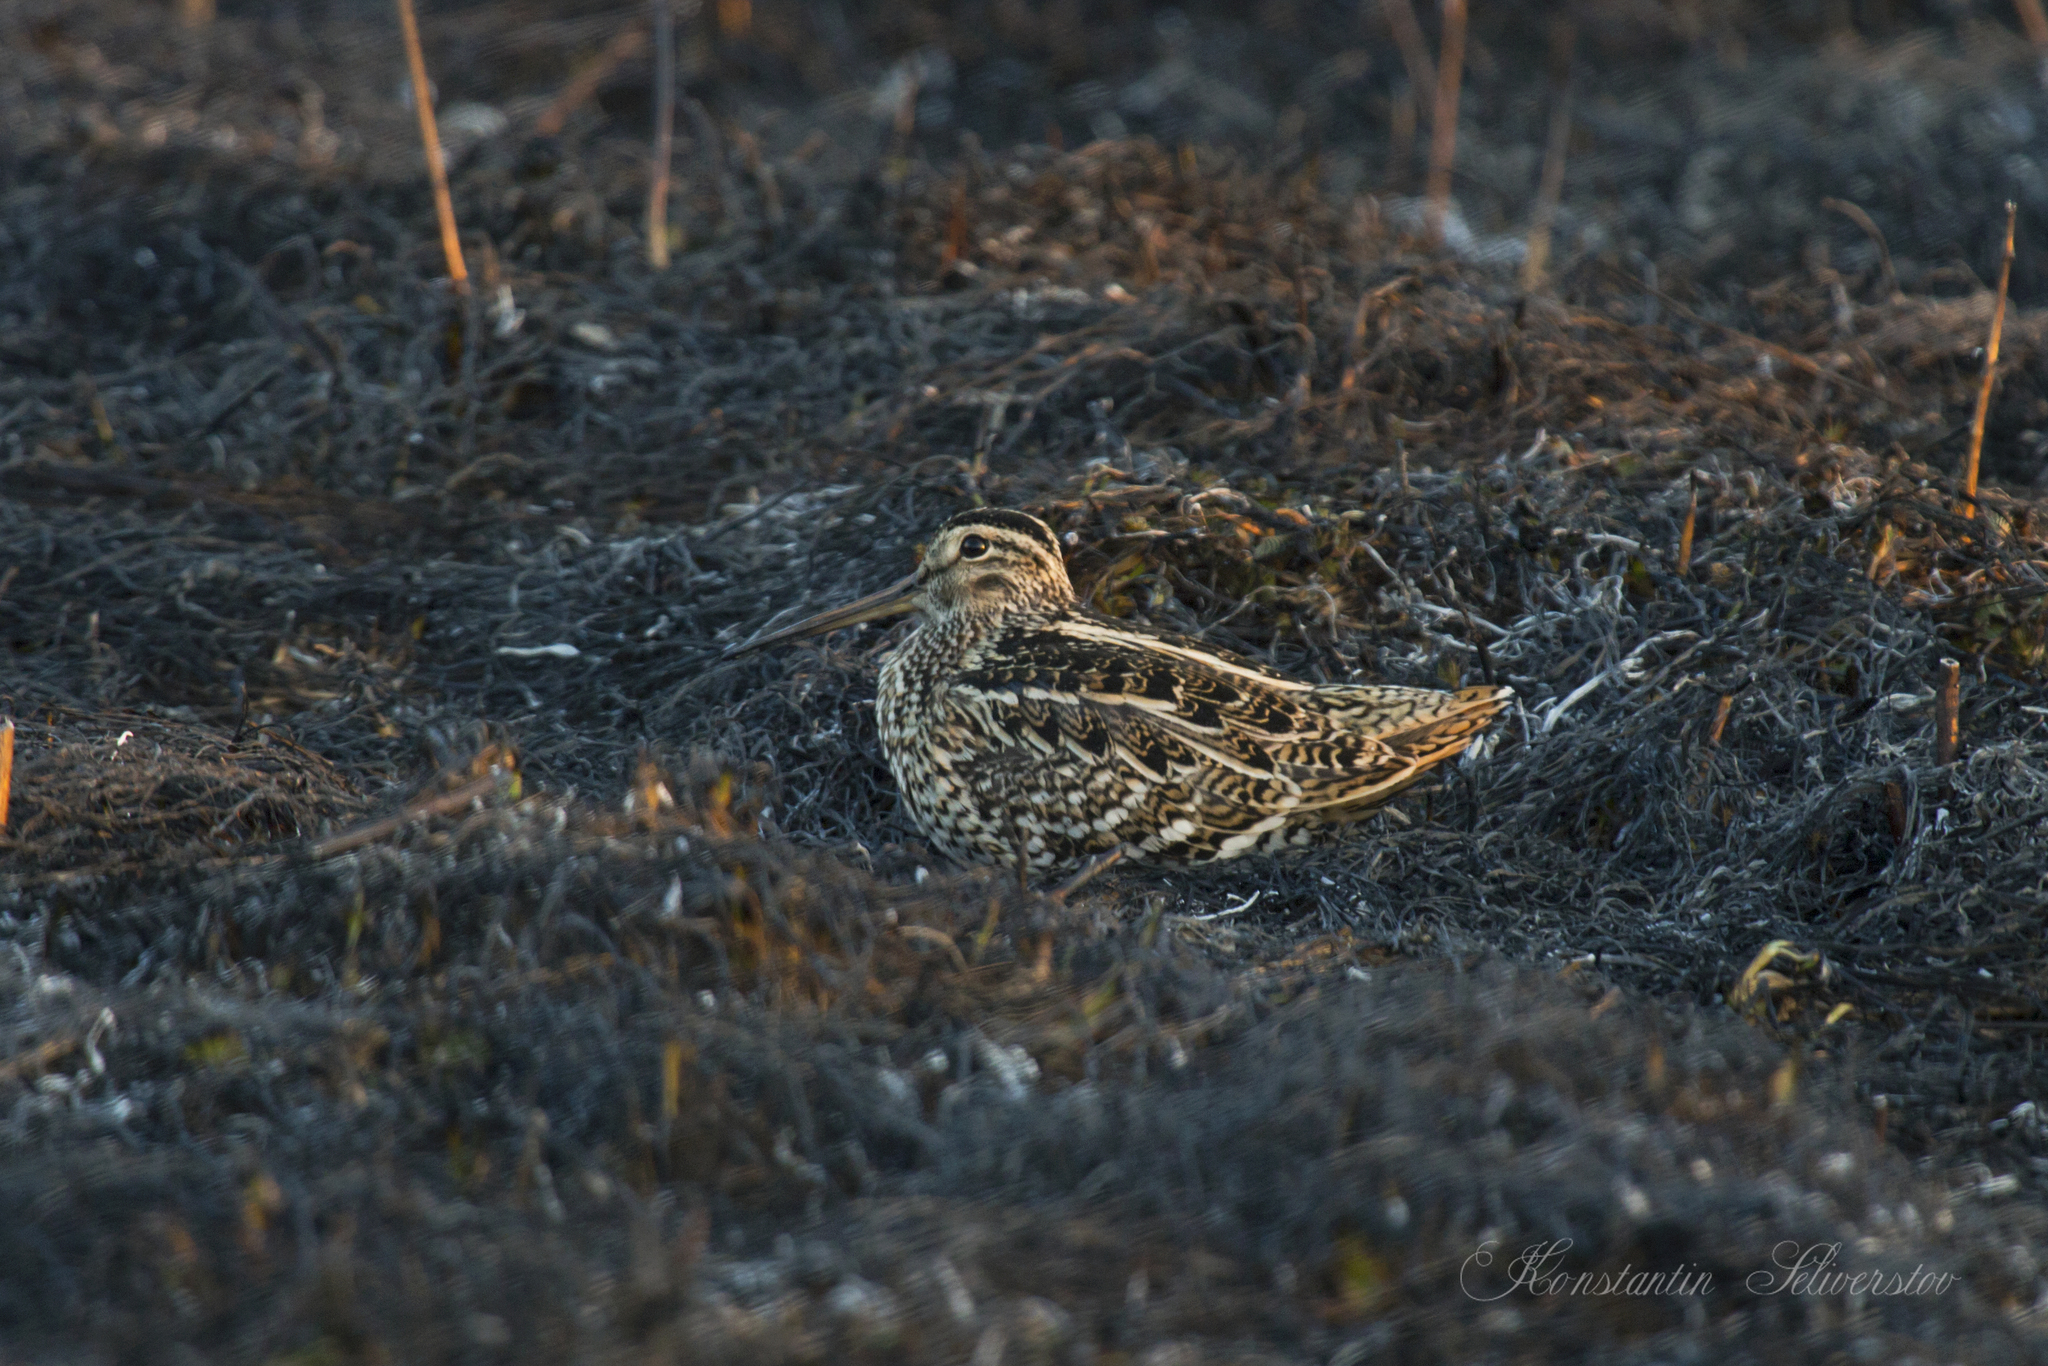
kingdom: Animalia
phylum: Chordata
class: Aves
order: Charadriiformes
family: Scolopacidae
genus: Gallinago
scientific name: Gallinago media
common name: Great snipe
